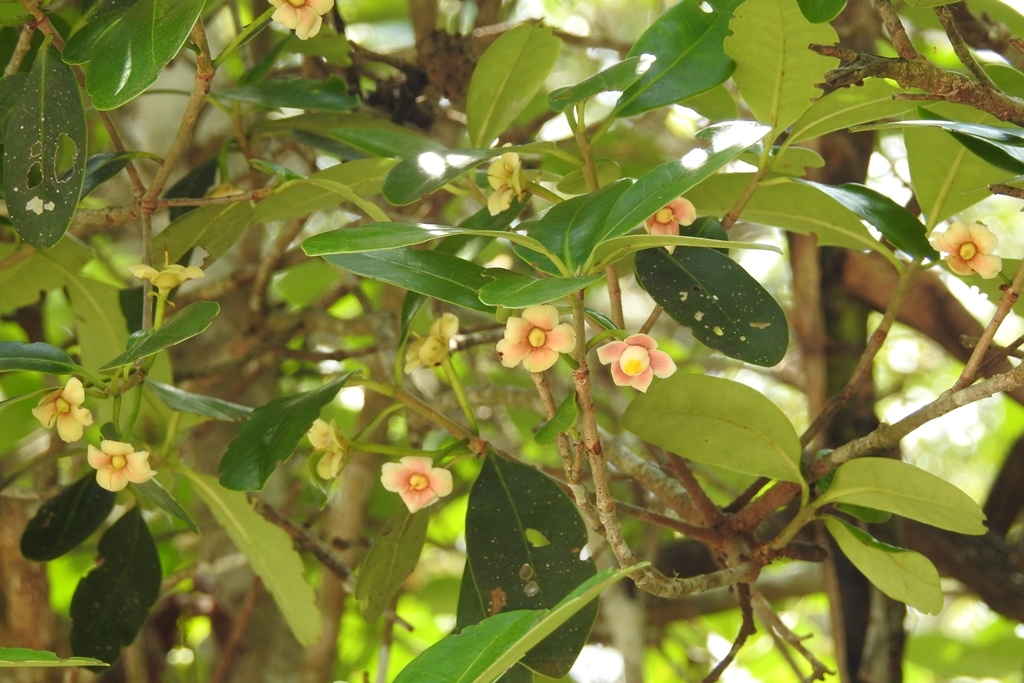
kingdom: Plantae
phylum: Tracheophyta
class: Magnoliopsida
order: Ericales
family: Pentaphylacaceae
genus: Ternstroemia
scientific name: Ternstroemia tepezapote
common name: Copey vera
